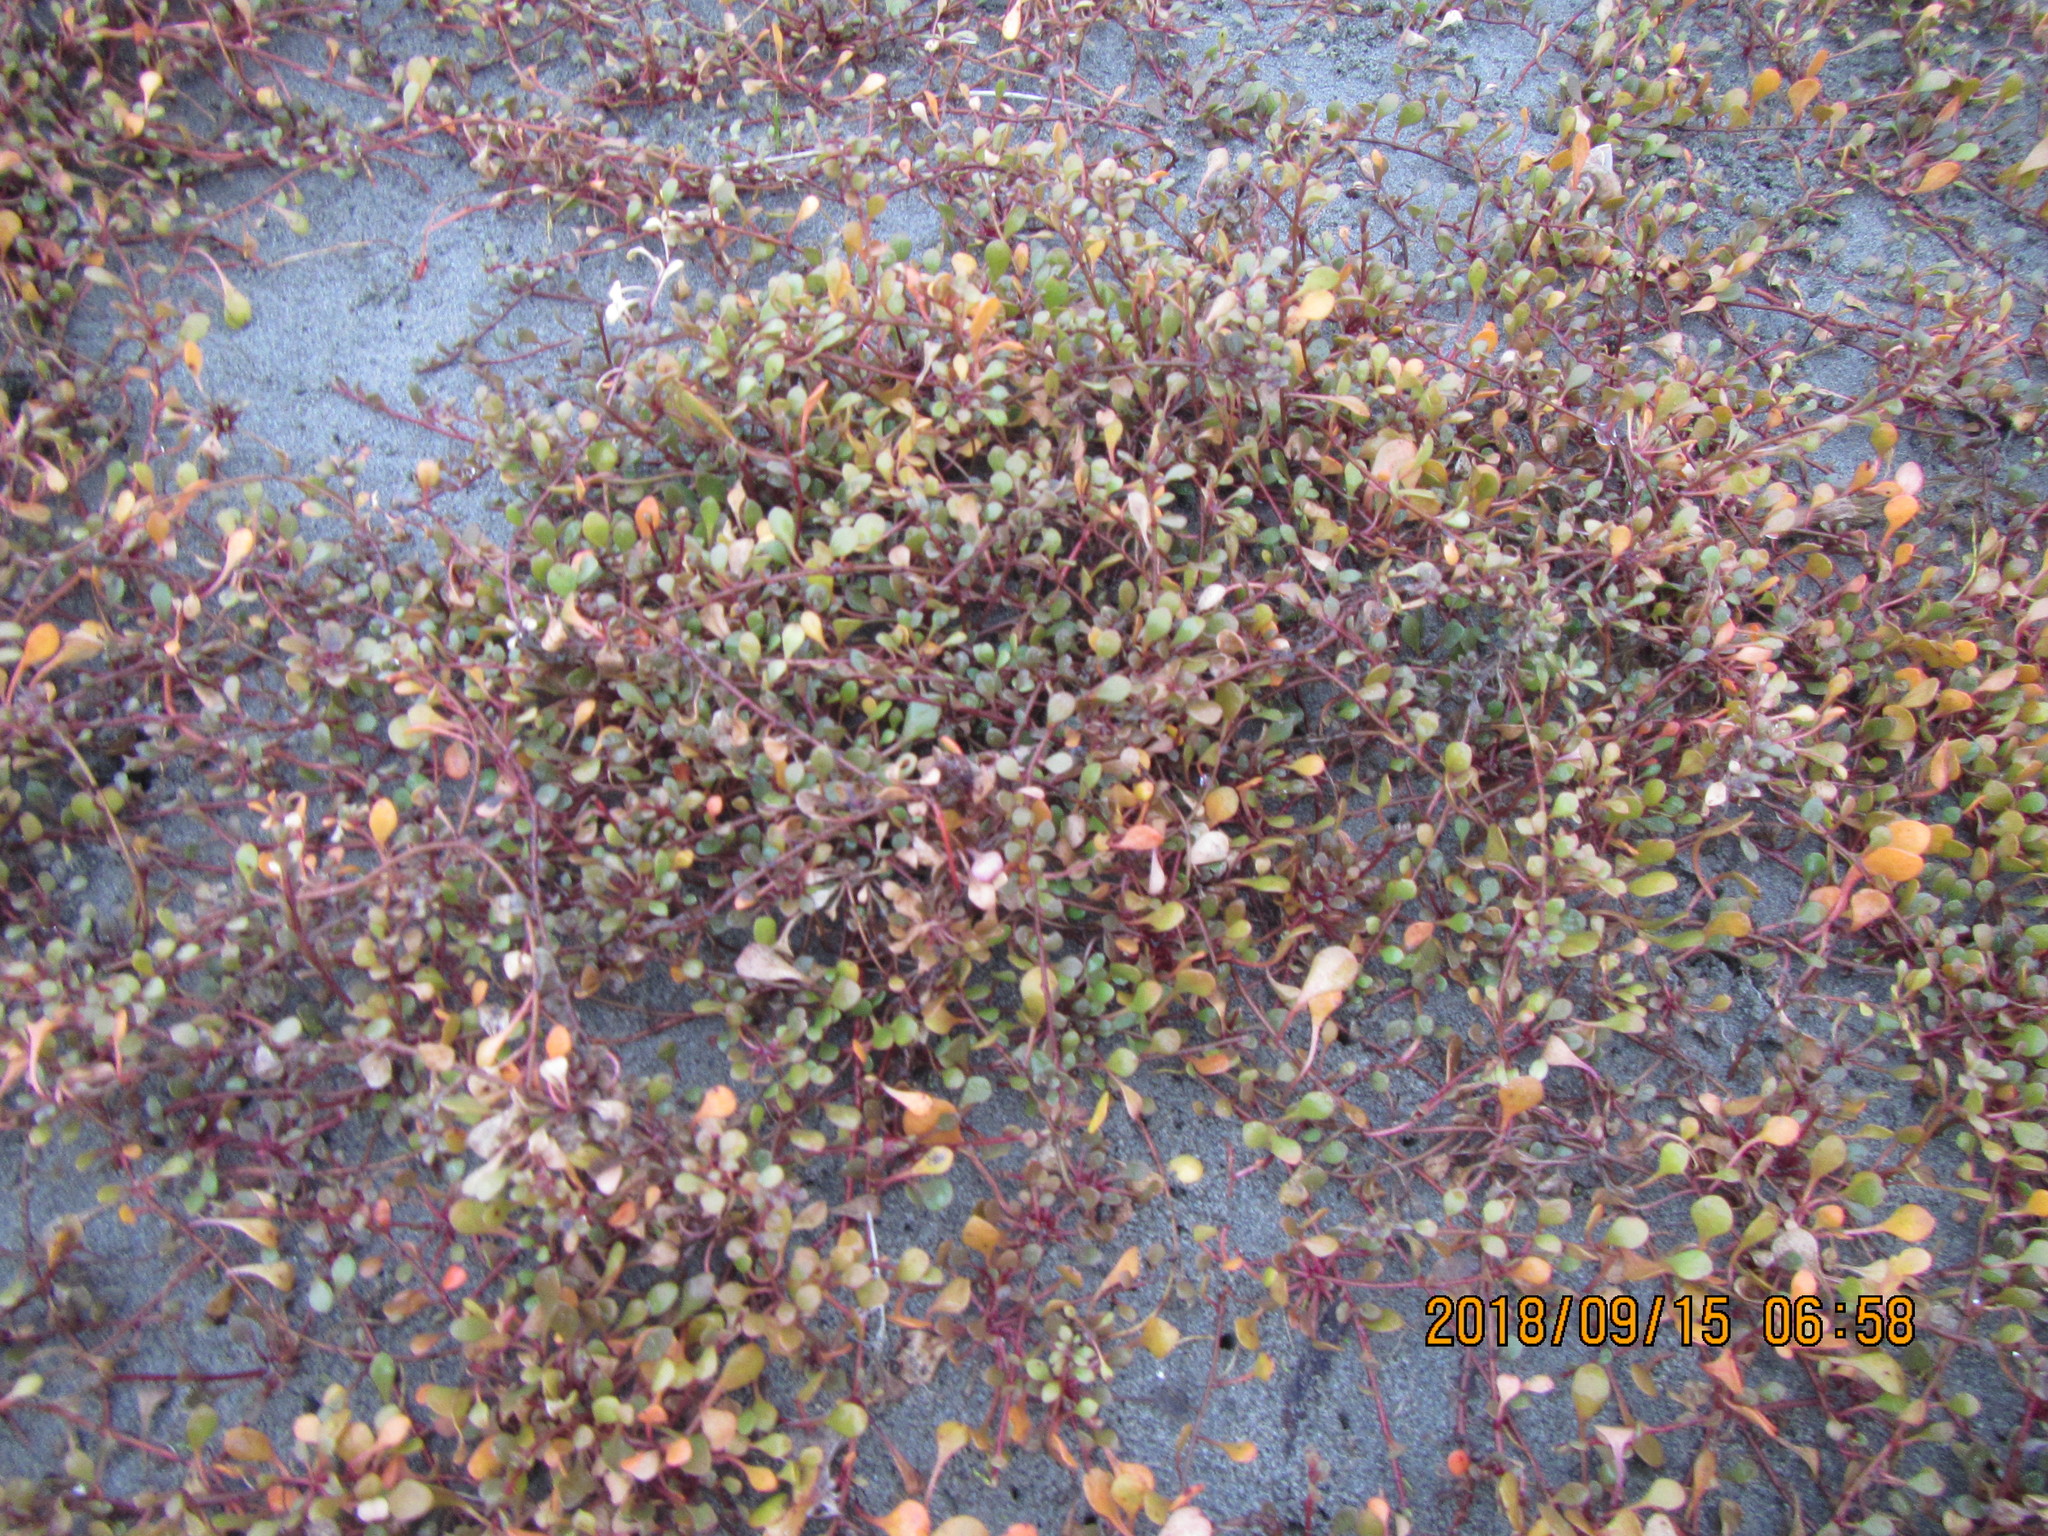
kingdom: Plantae
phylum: Tracheophyta
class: Magnoliopsida
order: Ericales
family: Primulaceae
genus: Samolus
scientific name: Samolus repens
